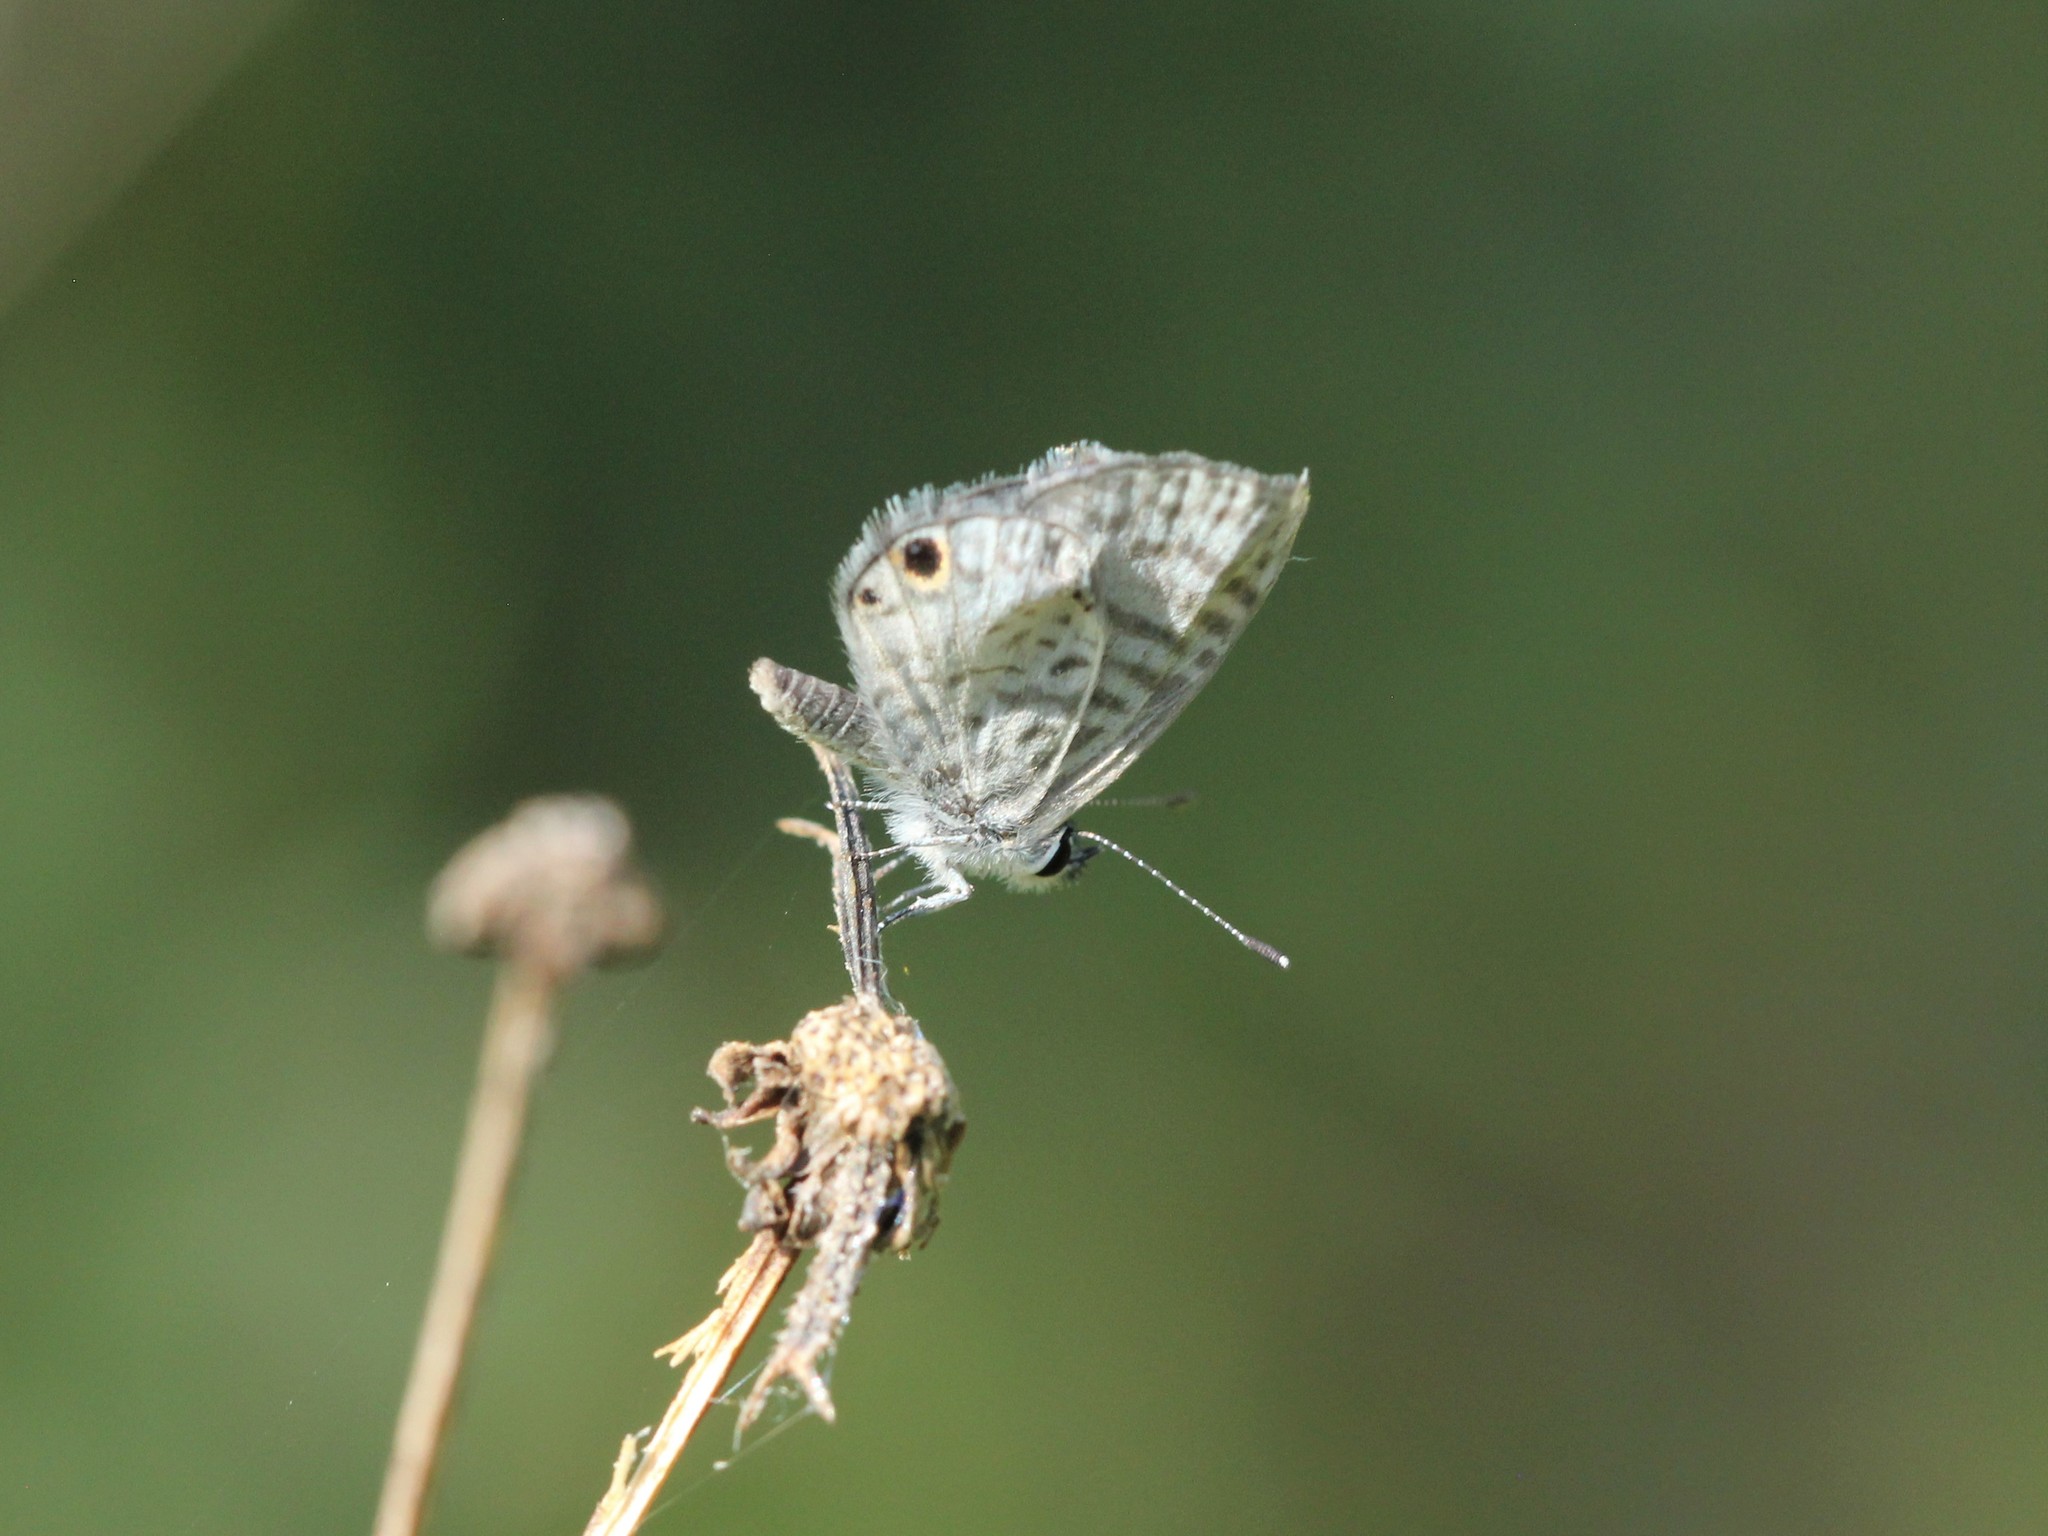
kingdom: Animalia
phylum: Arthropoda
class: Insecta
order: Lepidoptera
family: Lycaenidae
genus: Leptotes
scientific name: Leptotes cassius
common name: Cassius blue
